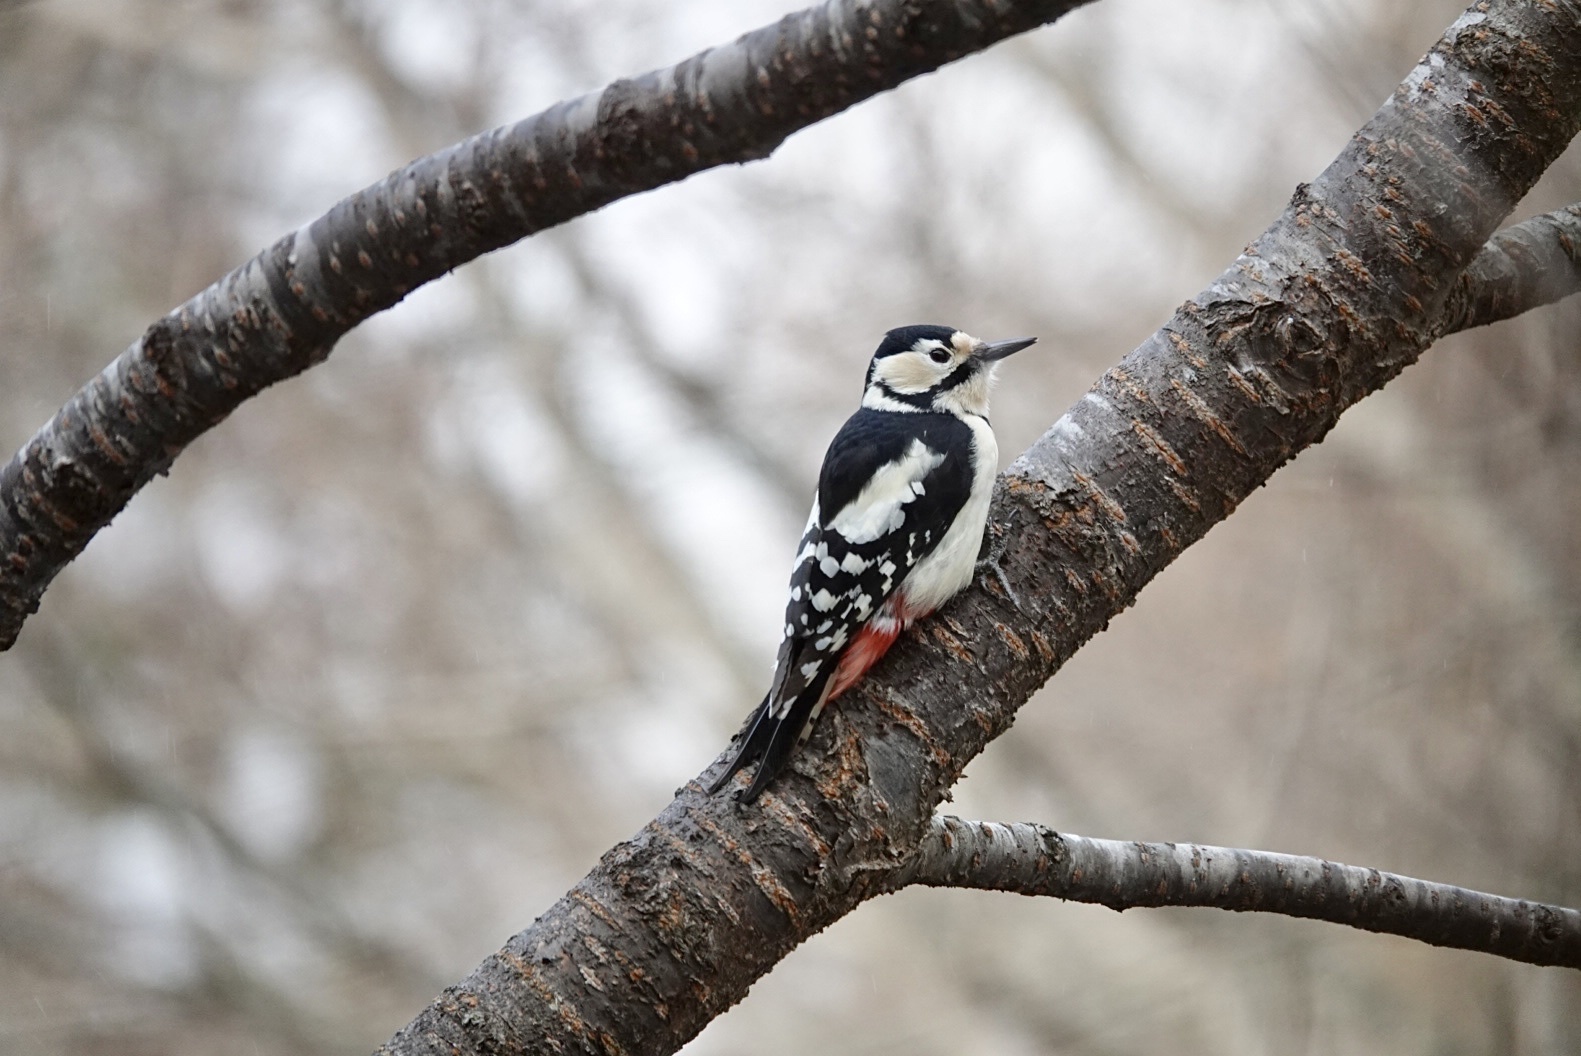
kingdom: Animalia
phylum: Chordata
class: Aves
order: Piciformes
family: Picidae
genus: Dendrocopos
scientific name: Dendrocopos major
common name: Great spotted woodpecker
